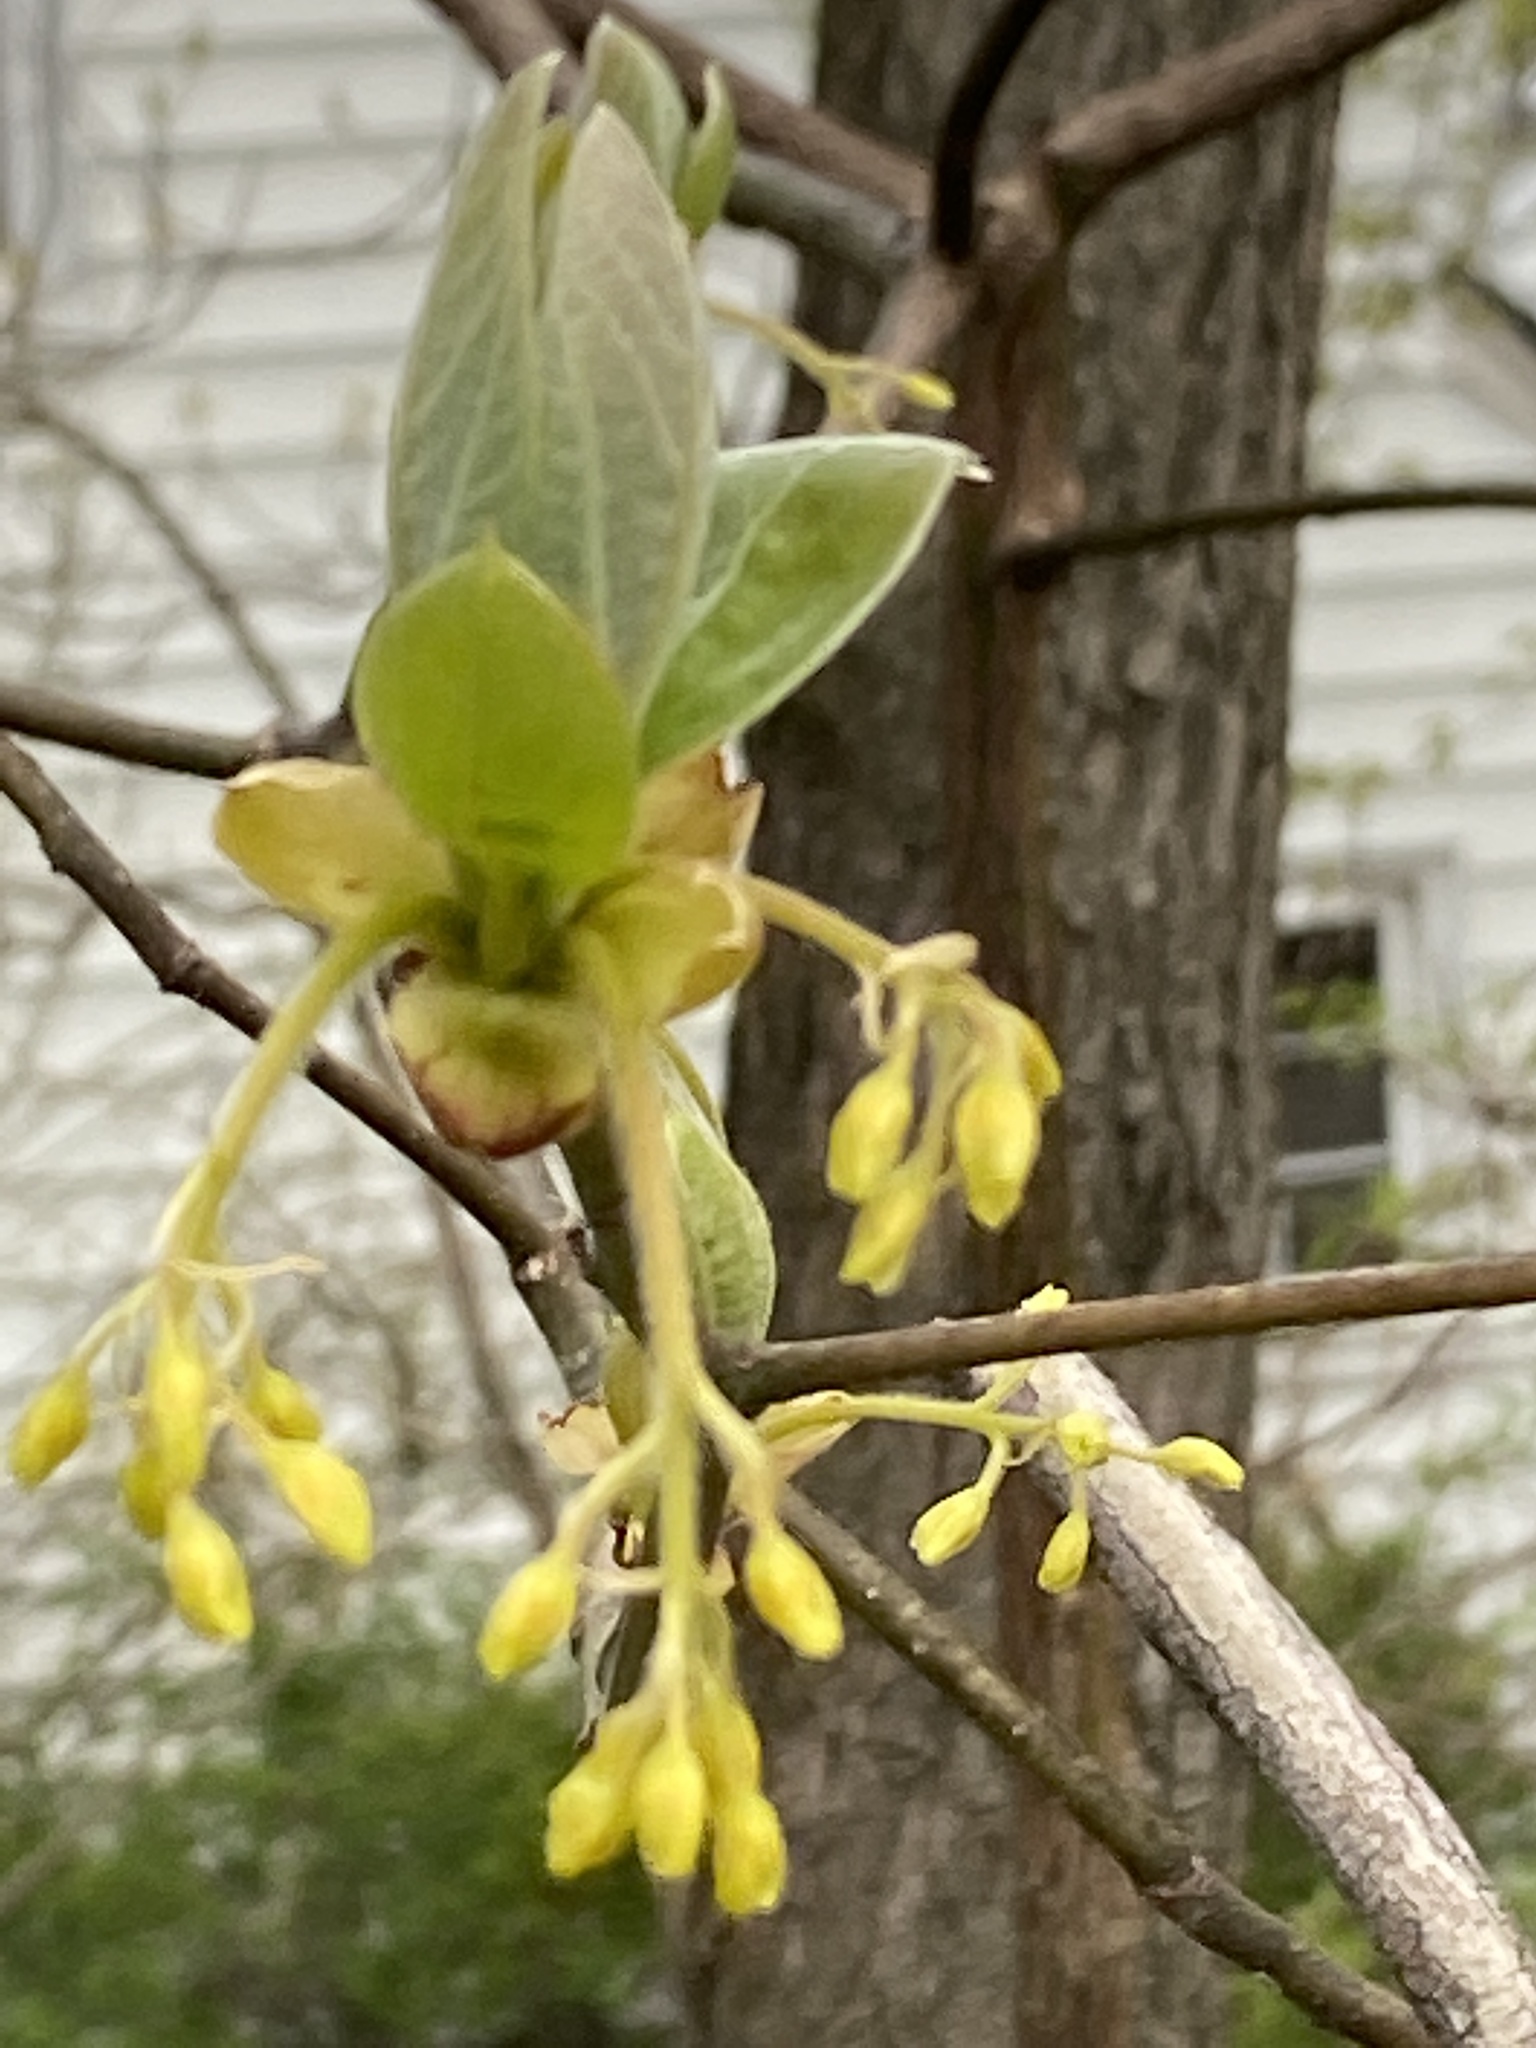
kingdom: Plantae
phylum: Tracheophyta
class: Magnoliopsida
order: Laurales
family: Lauraceae
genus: Sassafras
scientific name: Sassafras albidum
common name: Sassafras
